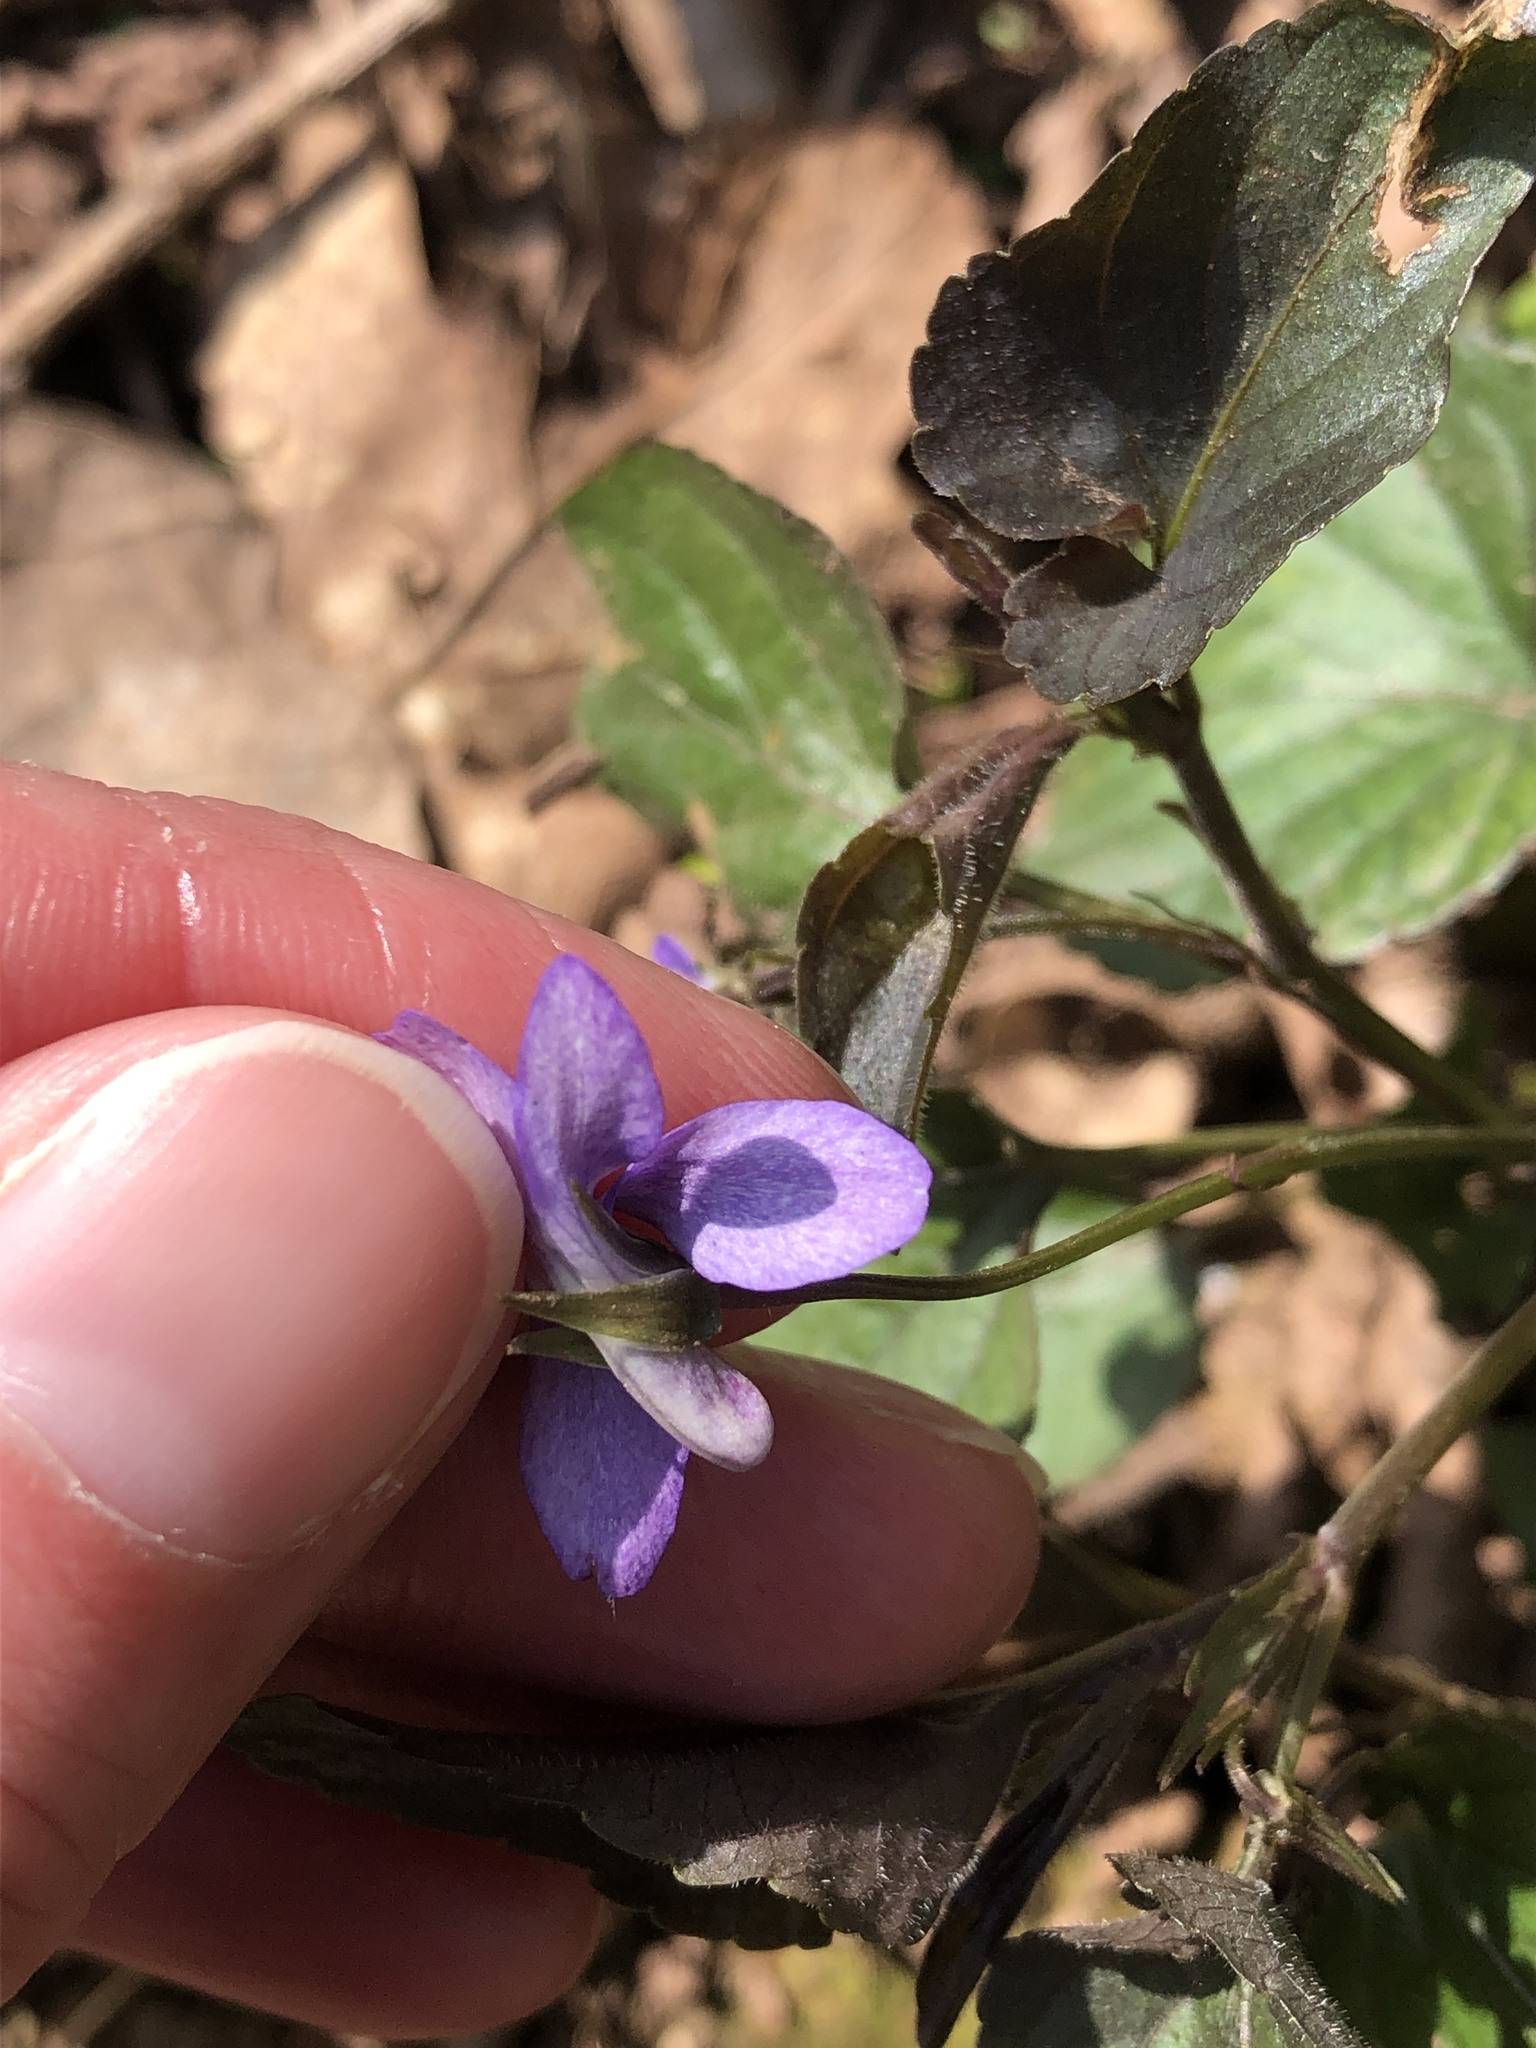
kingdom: Plantae
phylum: Tracheophyta
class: Magnoliopsida
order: Malpighiales
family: Violaceae
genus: Viola
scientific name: Viola riviniana
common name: Common dog-violet
